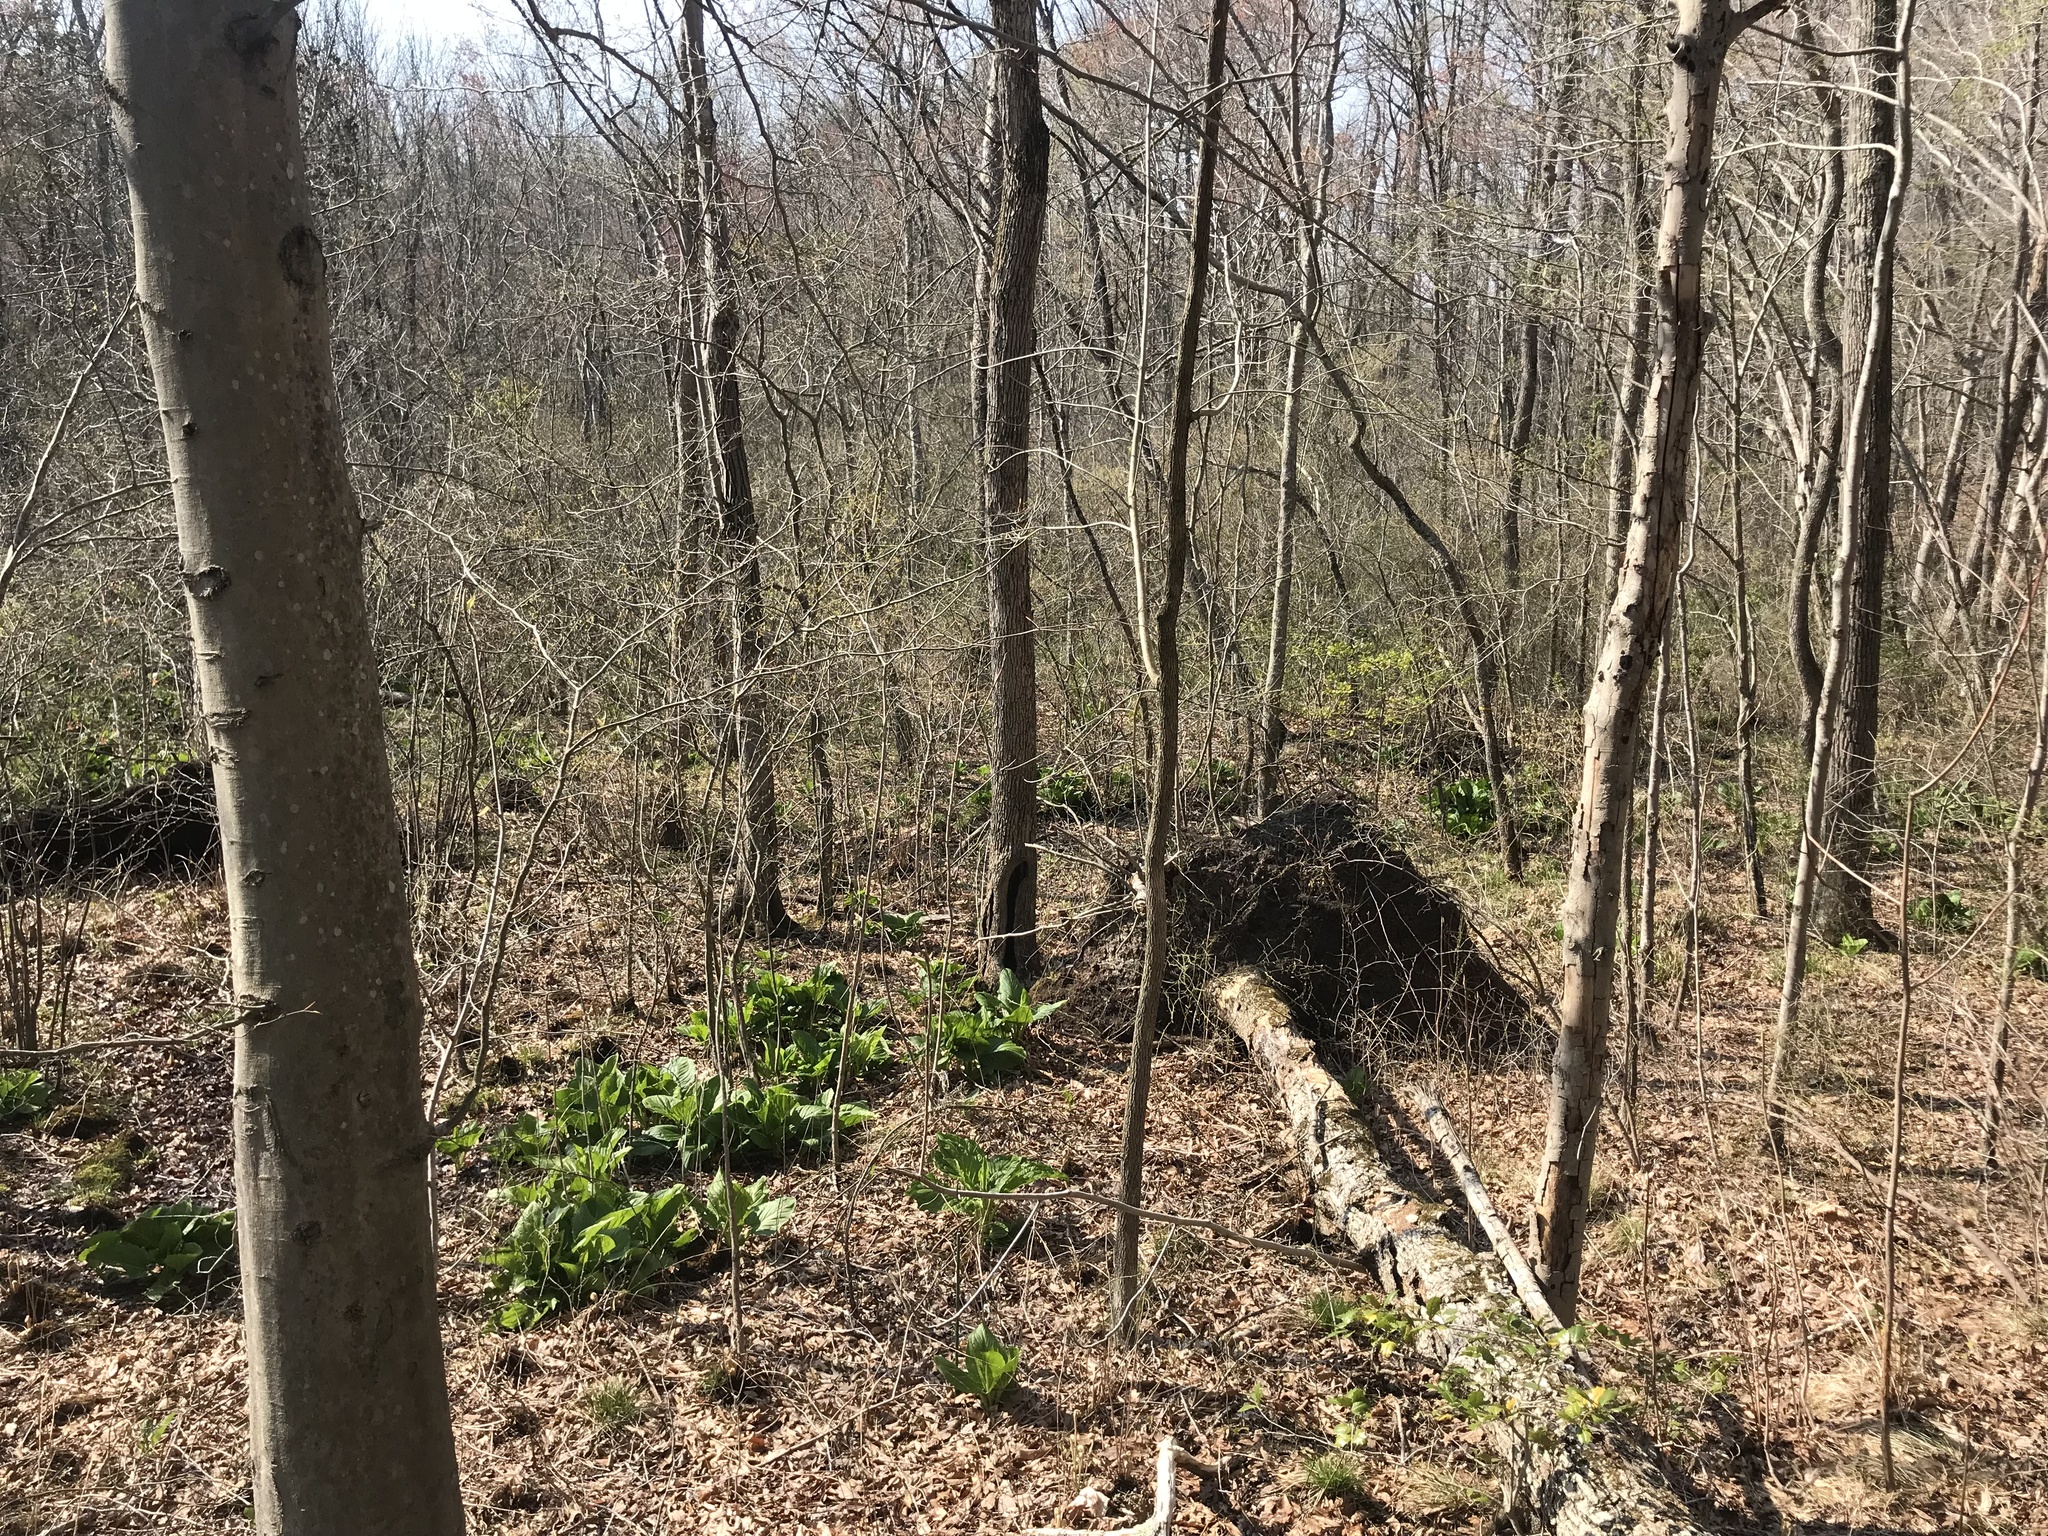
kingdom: Plantae
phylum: Tracheophyta
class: Liliopsida
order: Alismatales
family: Araceae
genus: Symplocarpus
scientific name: Symplocarpus foetidus
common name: Eastern skunk cabbage
